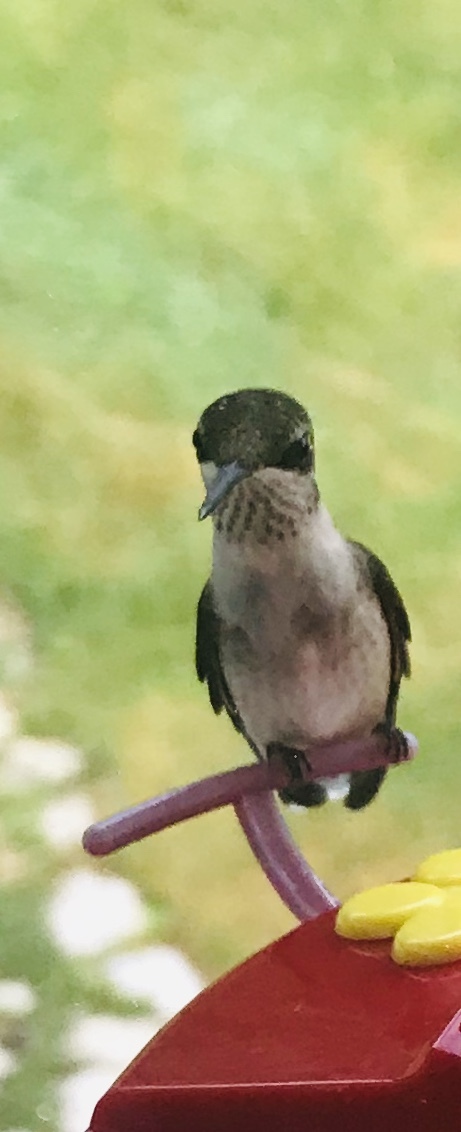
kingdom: Animalia
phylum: Chordata
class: Aves
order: Apodiformes
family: Trochilidae
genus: Archilochus
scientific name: Archilochus colubris
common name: Ruby-throated hummingbird
